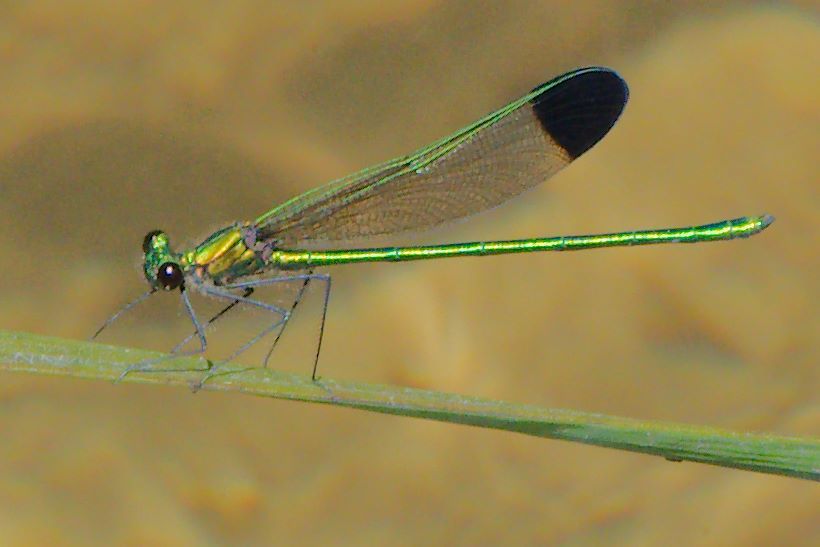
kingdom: Animalia
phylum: Arthropoda
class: Insecta
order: Odonata
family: Calopterygidae
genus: Calopteryx
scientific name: Calopteryx dimidiata
